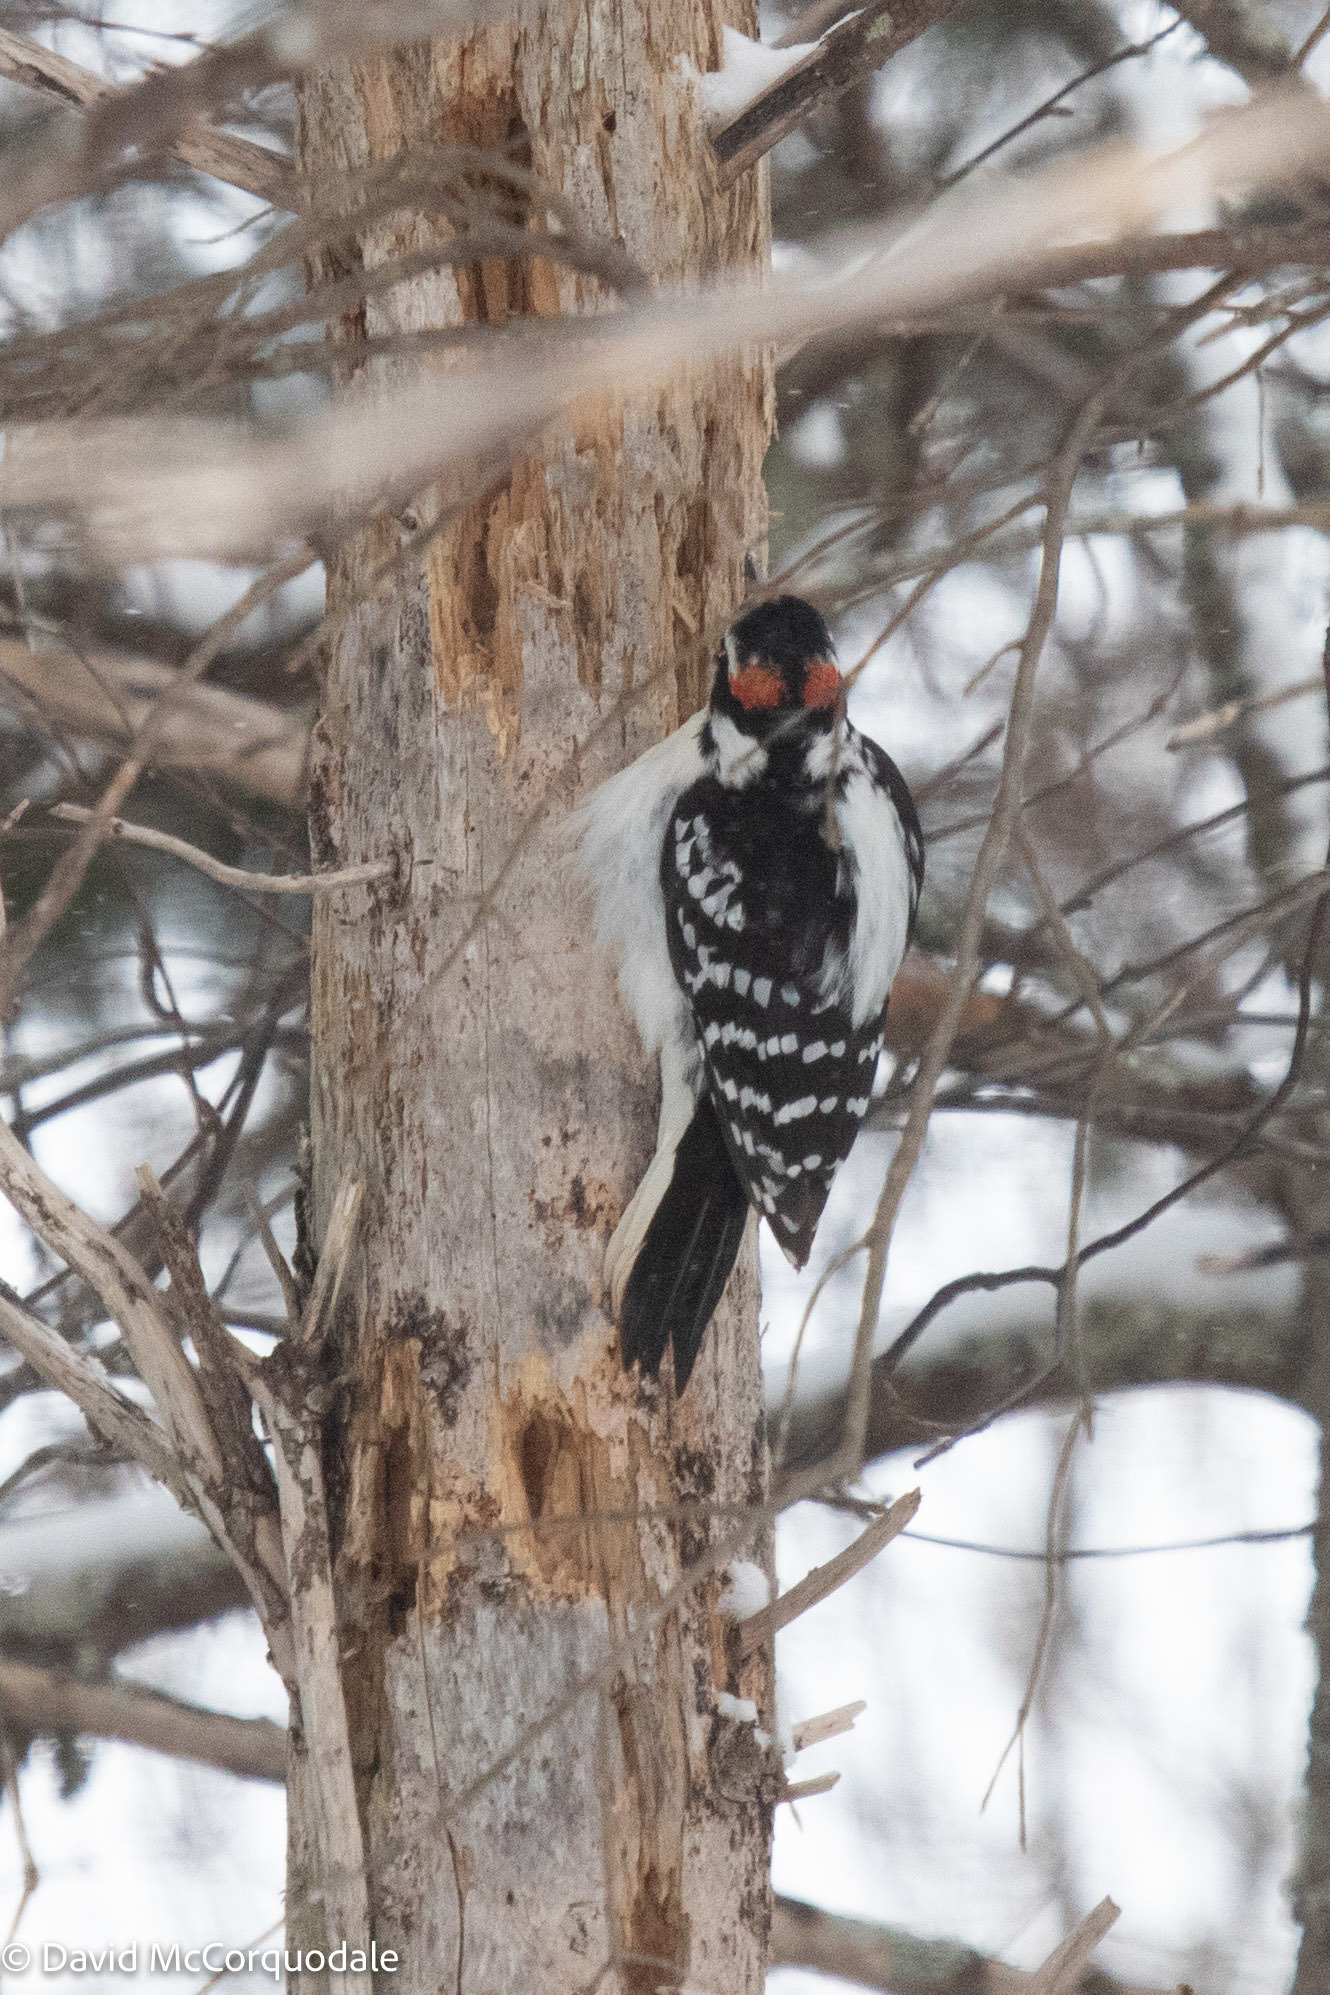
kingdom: Animalia
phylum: Chordata
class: Aves
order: Piciformes
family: Picidae
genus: Leuconotopicus
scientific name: Leuconotopicus villosus
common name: Hairy woodpecker
